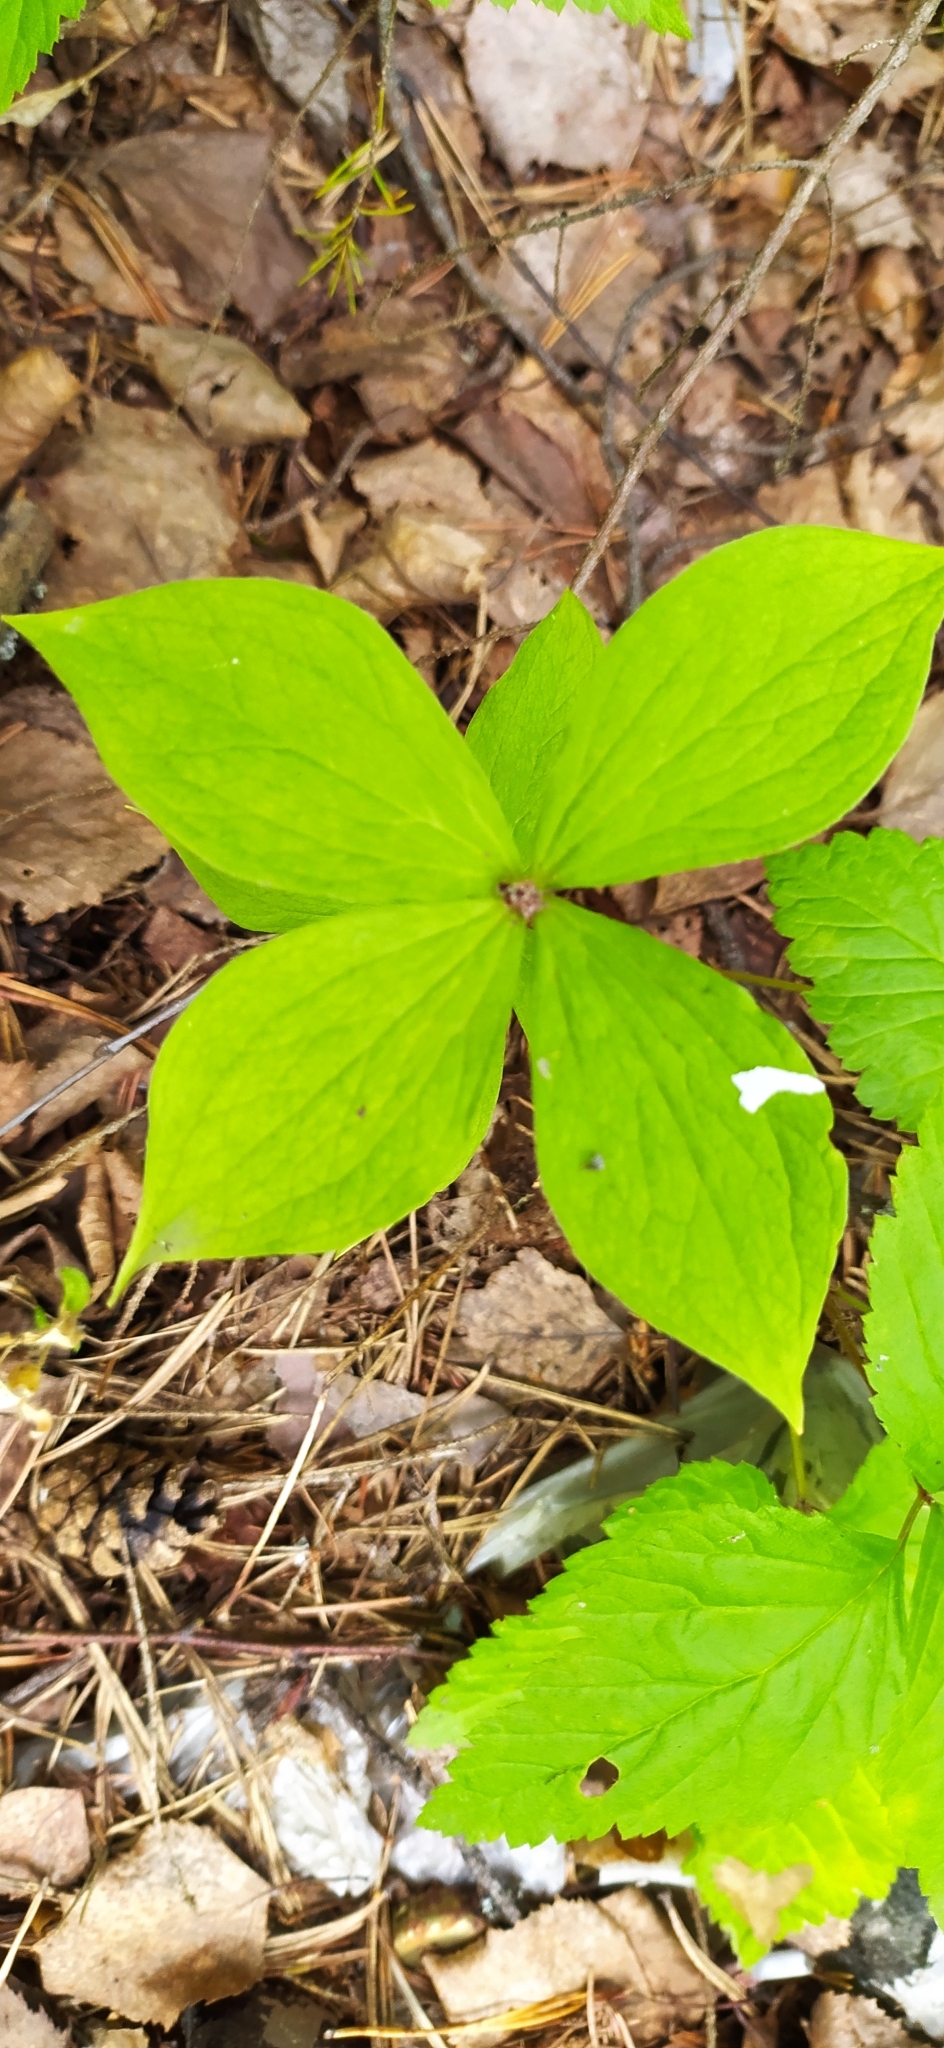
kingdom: Plantae
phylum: Tracheophyta
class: Liliopsida
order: Liliales
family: Melanthiaceae
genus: Paris
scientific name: Paris quadrifolia
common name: Herb-paris
